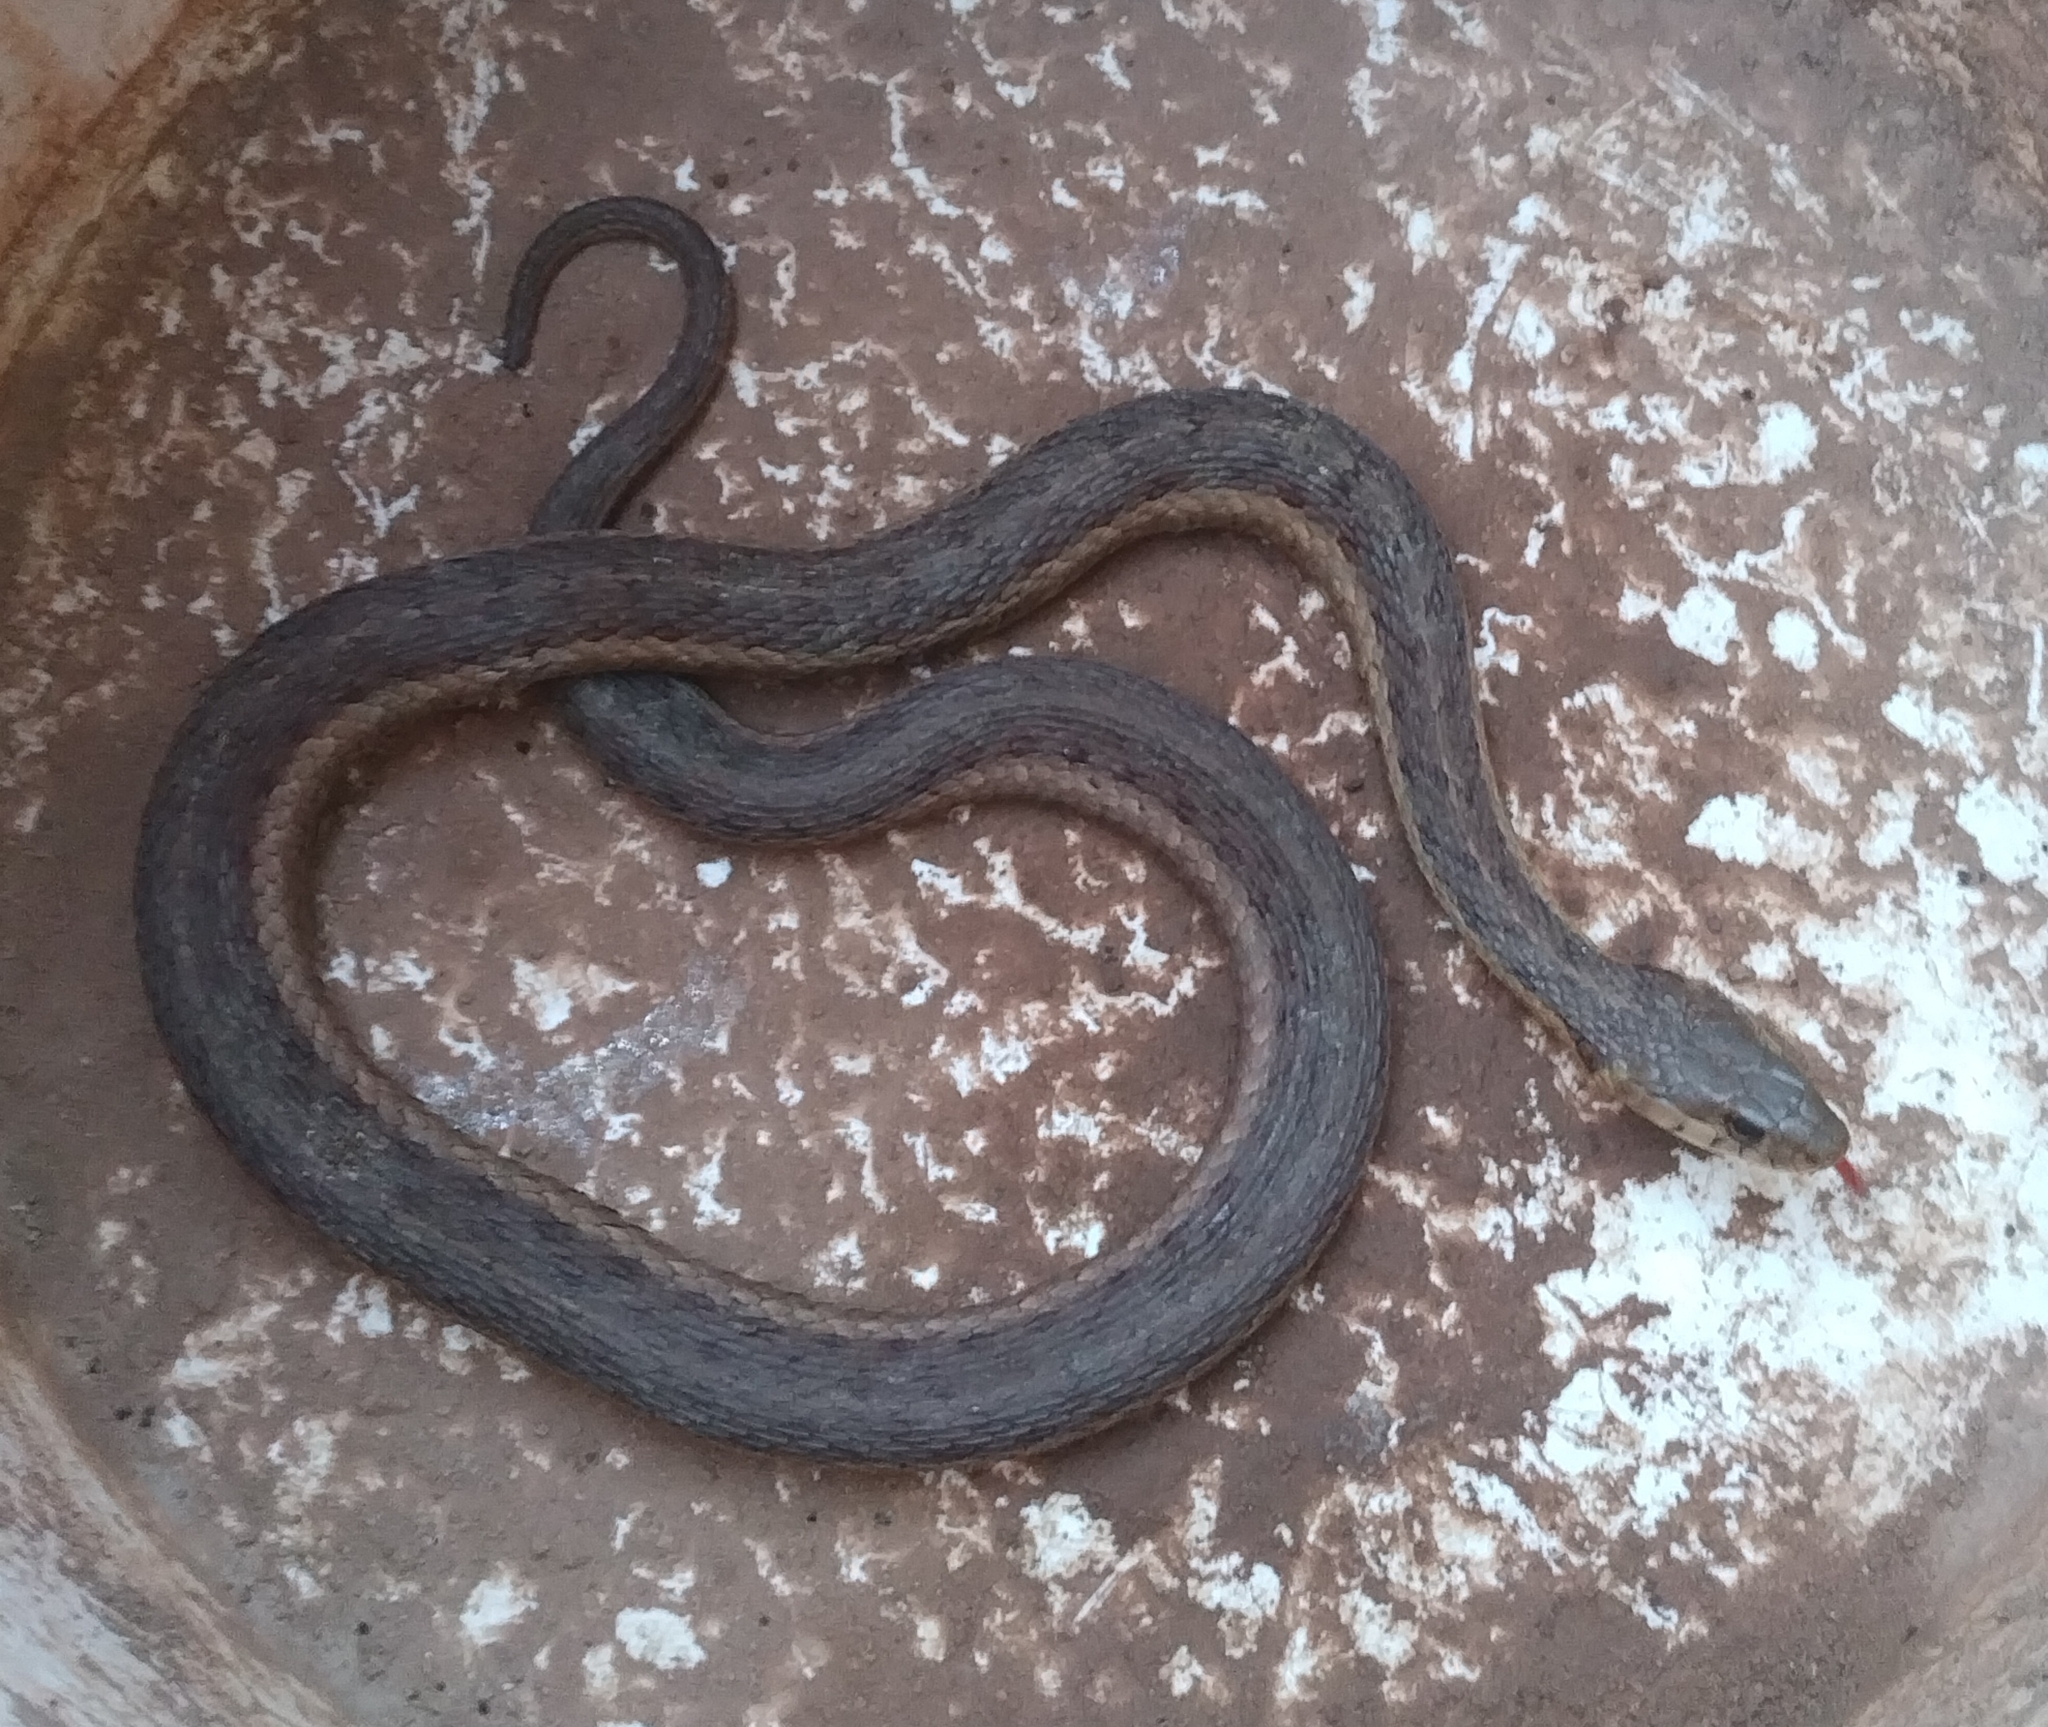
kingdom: Animalia
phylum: Chordata
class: Squamata
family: Colubridae
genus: Thamnophis
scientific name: Thamnophis sirtalis
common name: Common garter snake
